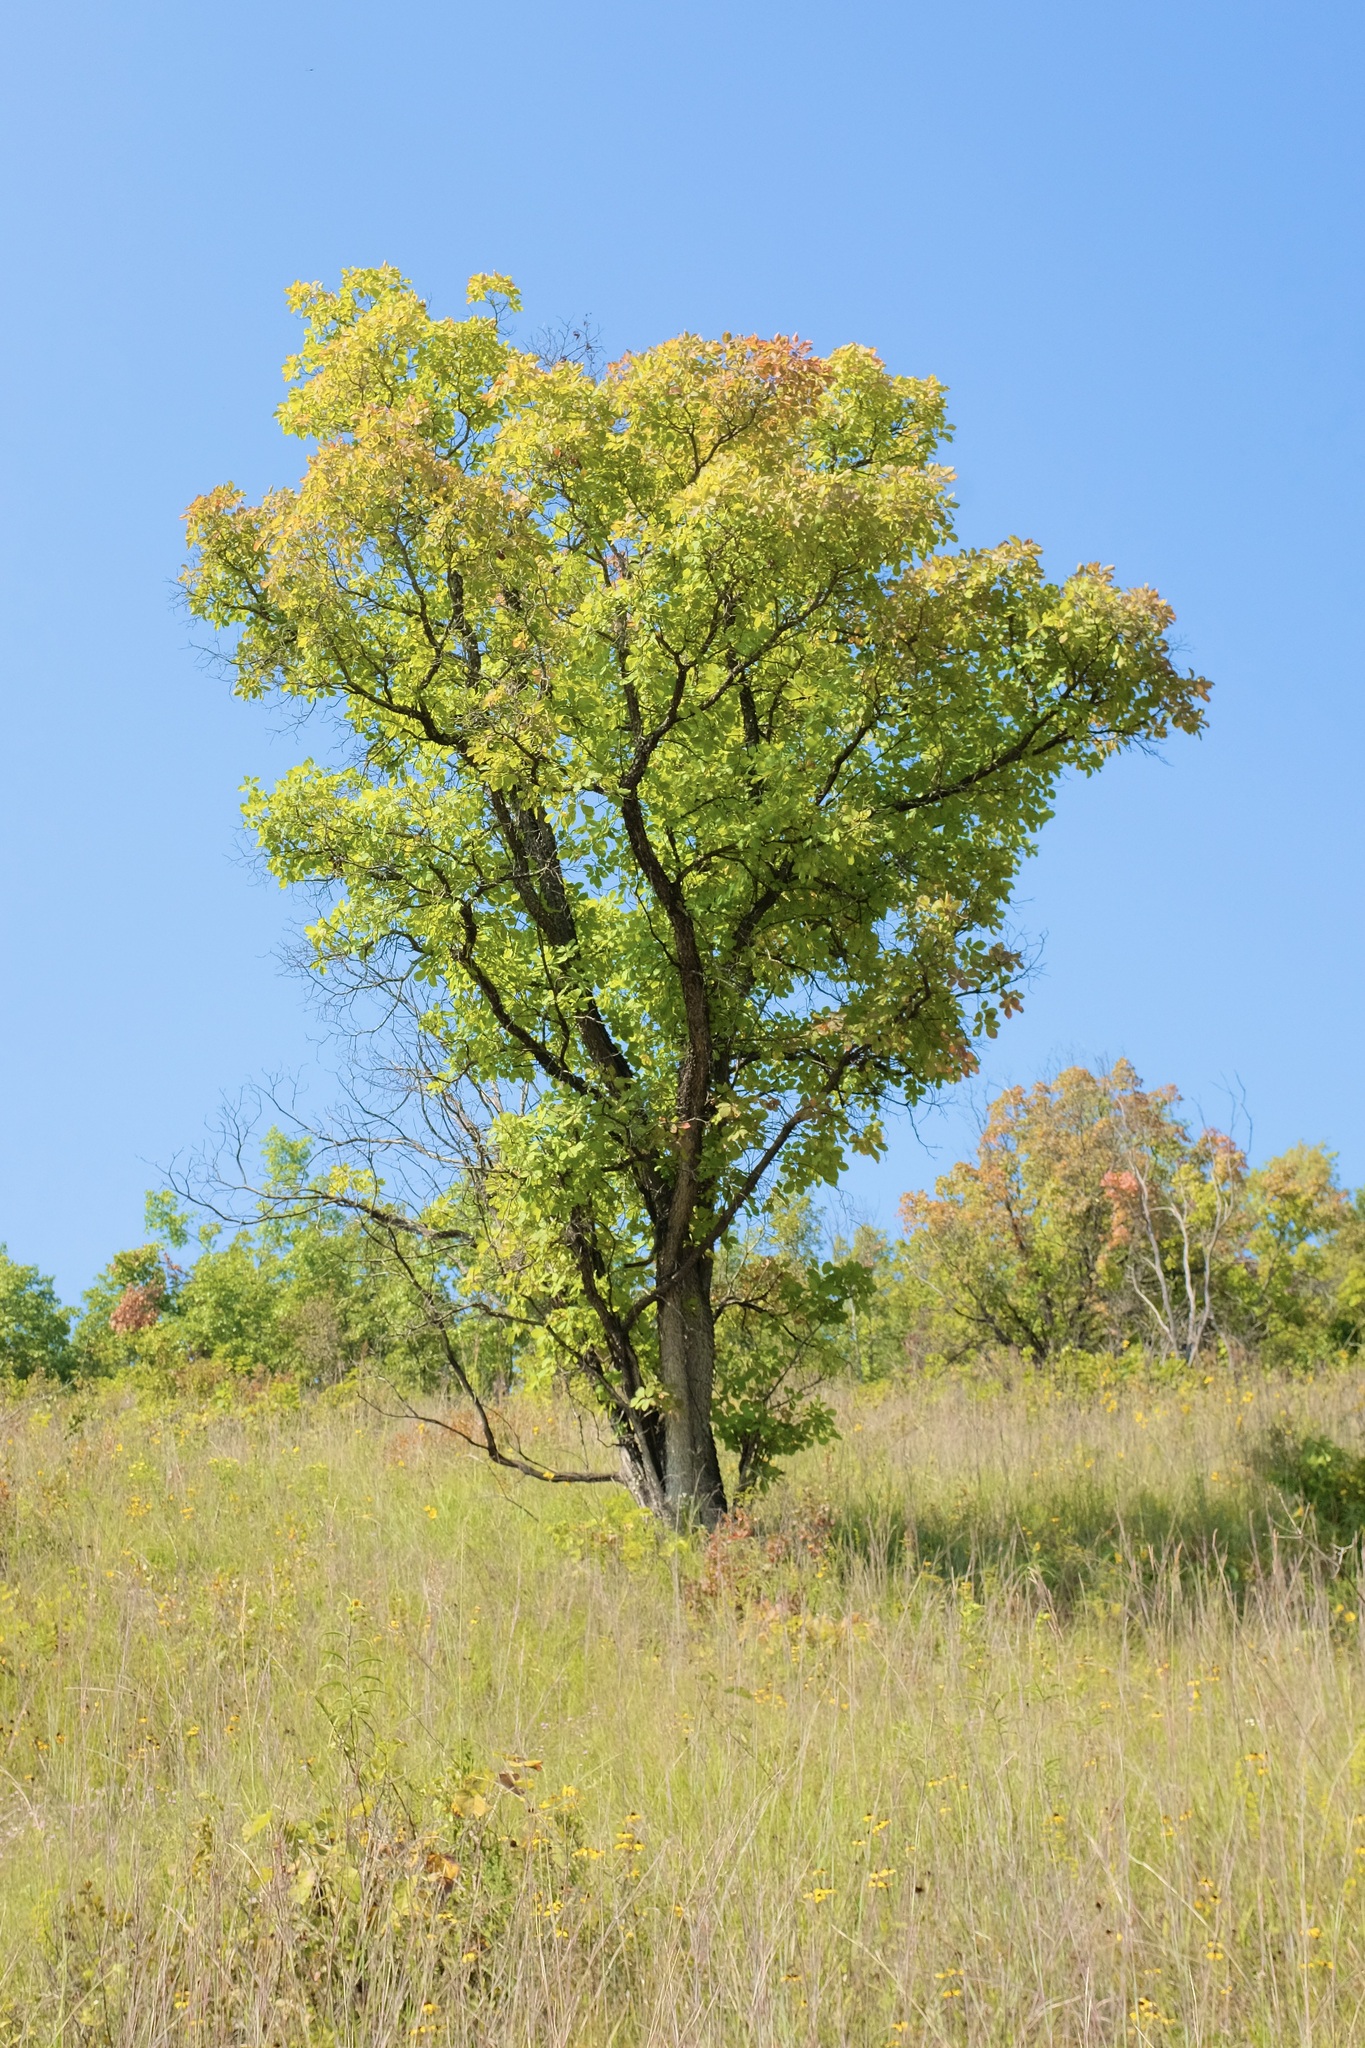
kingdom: Plantae
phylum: Tracheophyta
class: Magnoliopsida
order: Sapindales
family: Anacardiaceae
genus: Cotinus
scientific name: Cotinus obovatus
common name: Chittamwood
